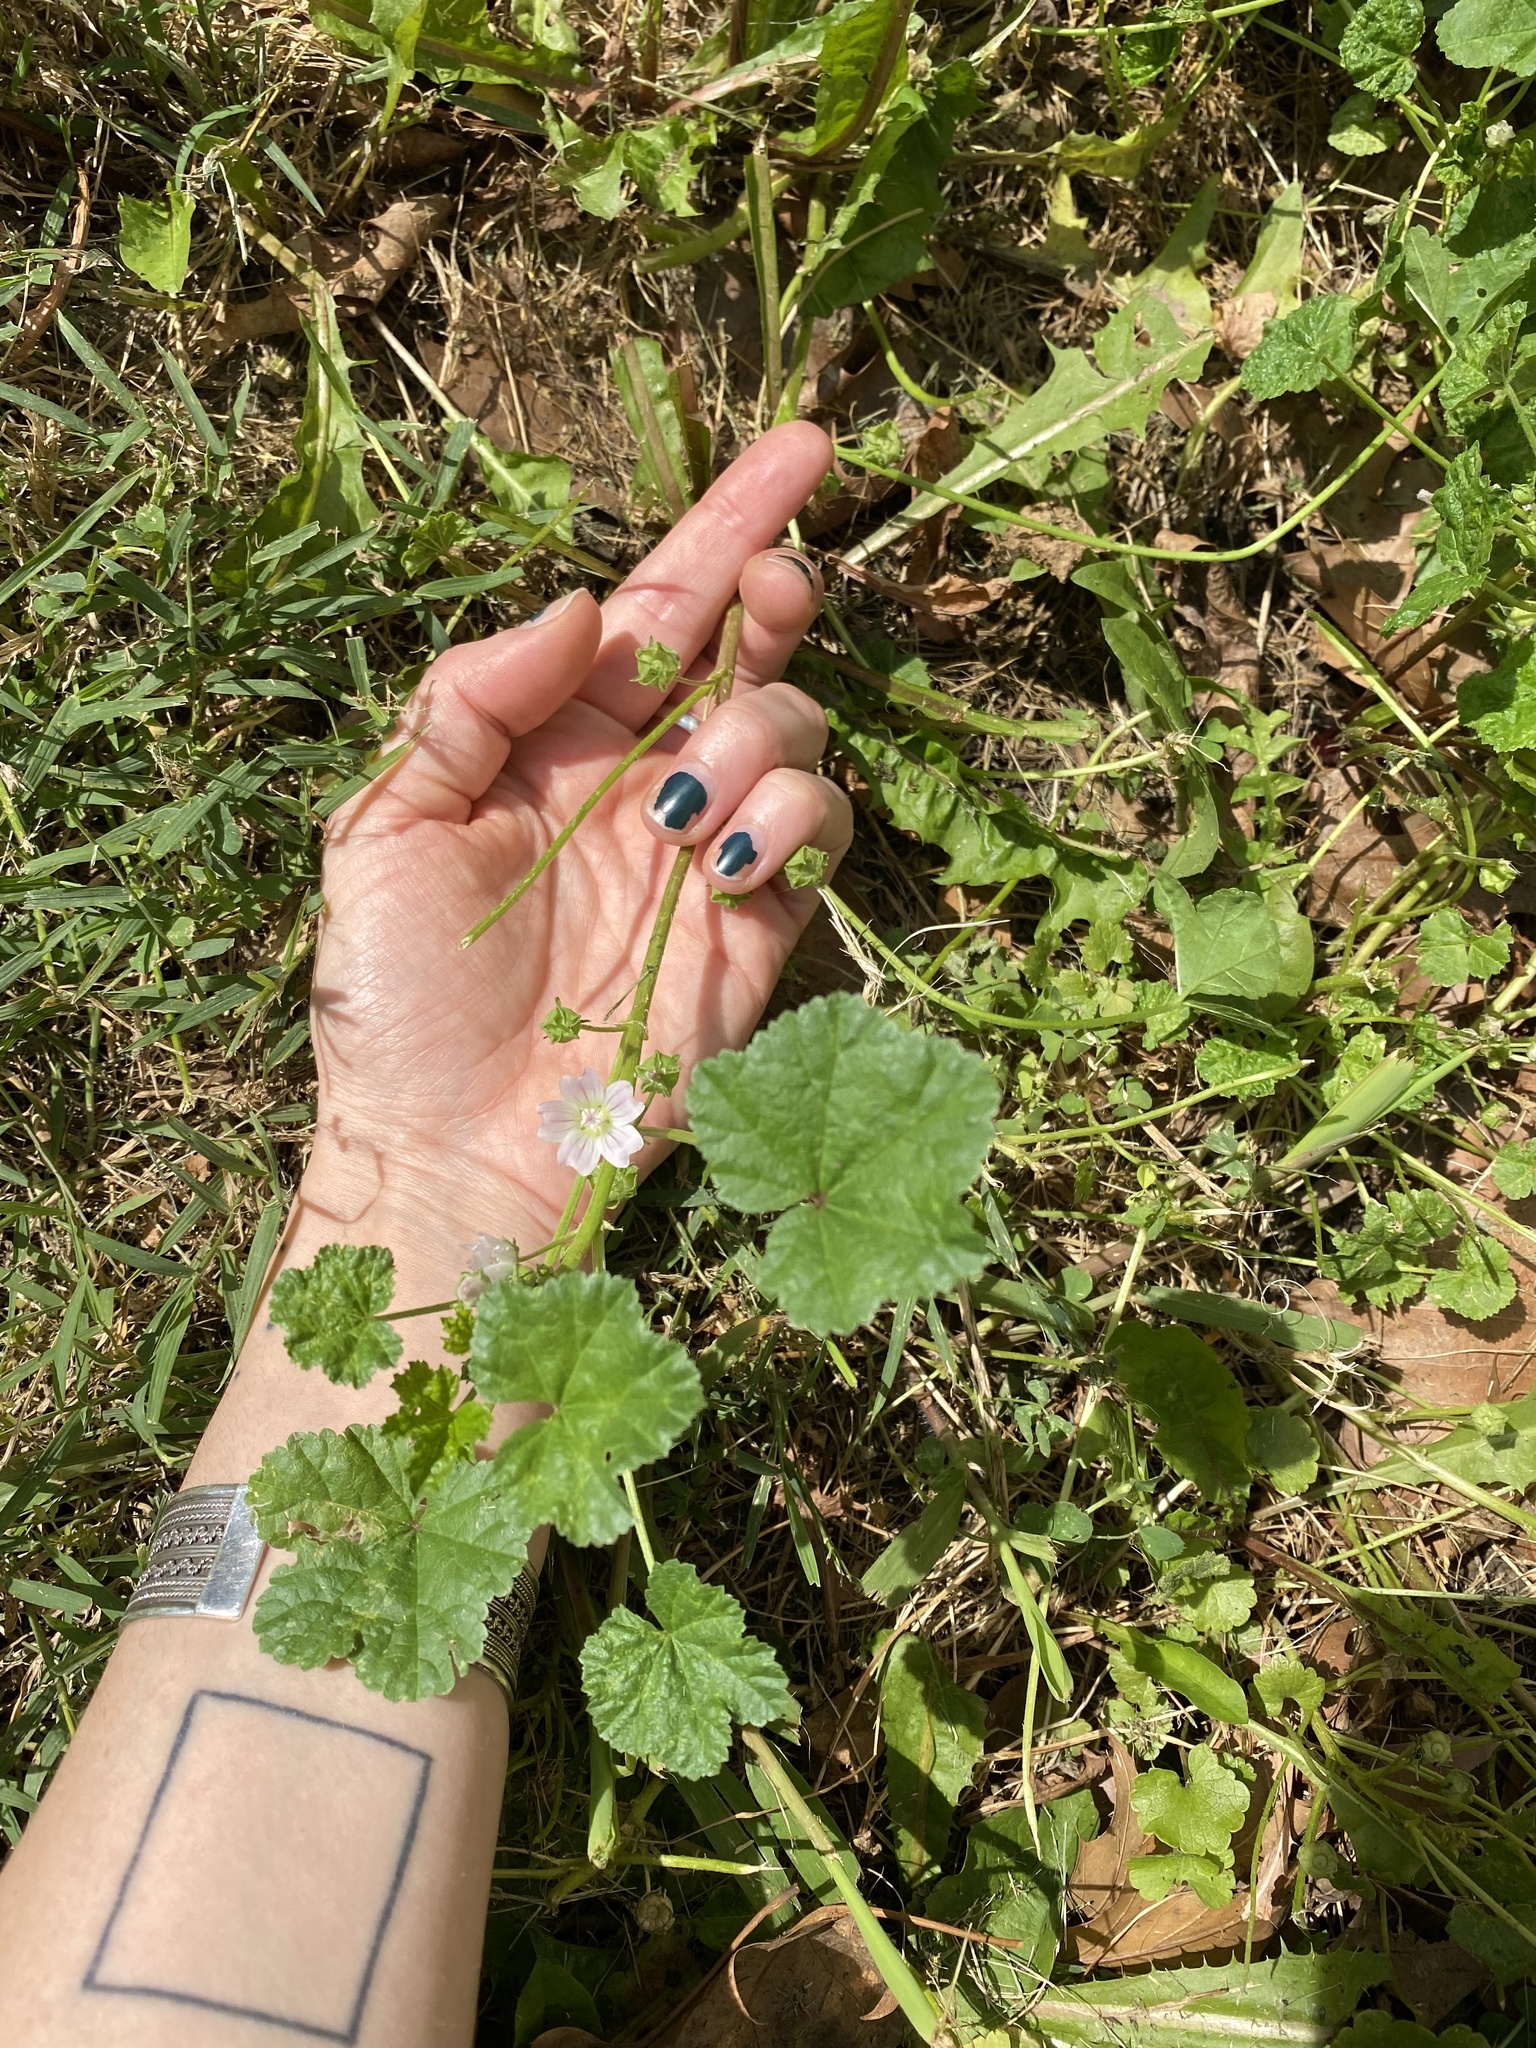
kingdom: Plantae
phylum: Tracheophyta
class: Magnoliopsida
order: Malvales
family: Malvaceae
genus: Malva
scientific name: Malva neglecta
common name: Common mallow
